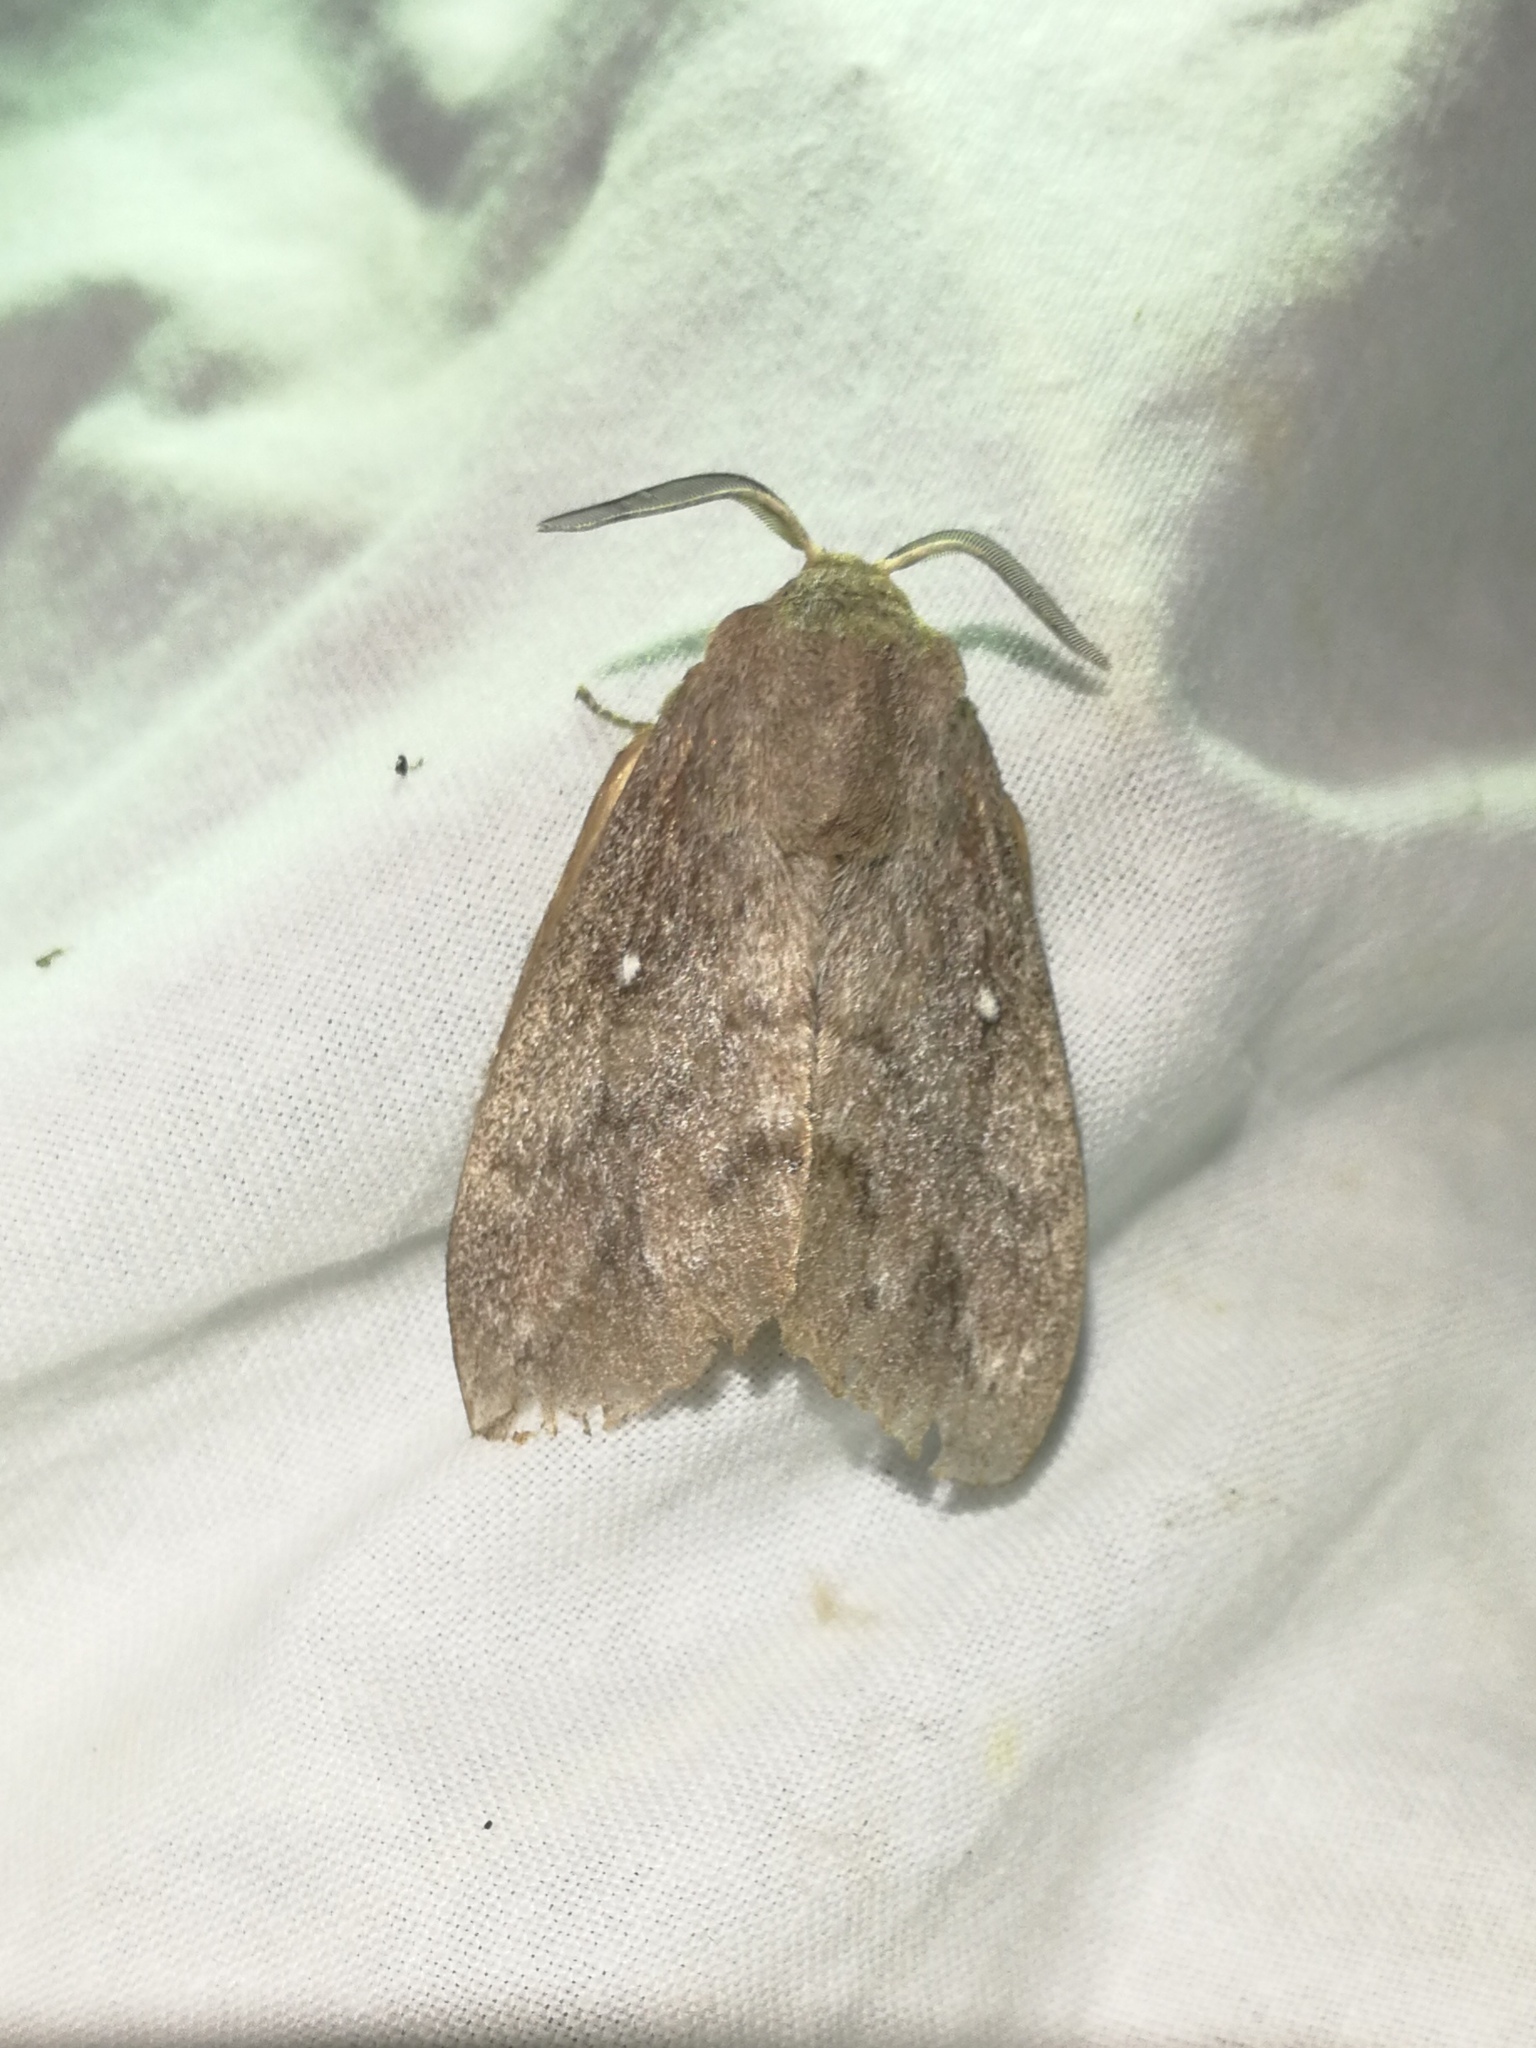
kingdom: Animalia
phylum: Arthropoda
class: Insecta
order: Lepidoptera
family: Lasiocampidae
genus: Dendrolimus
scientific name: Dendrolimus pini
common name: Pine-tree lappet
